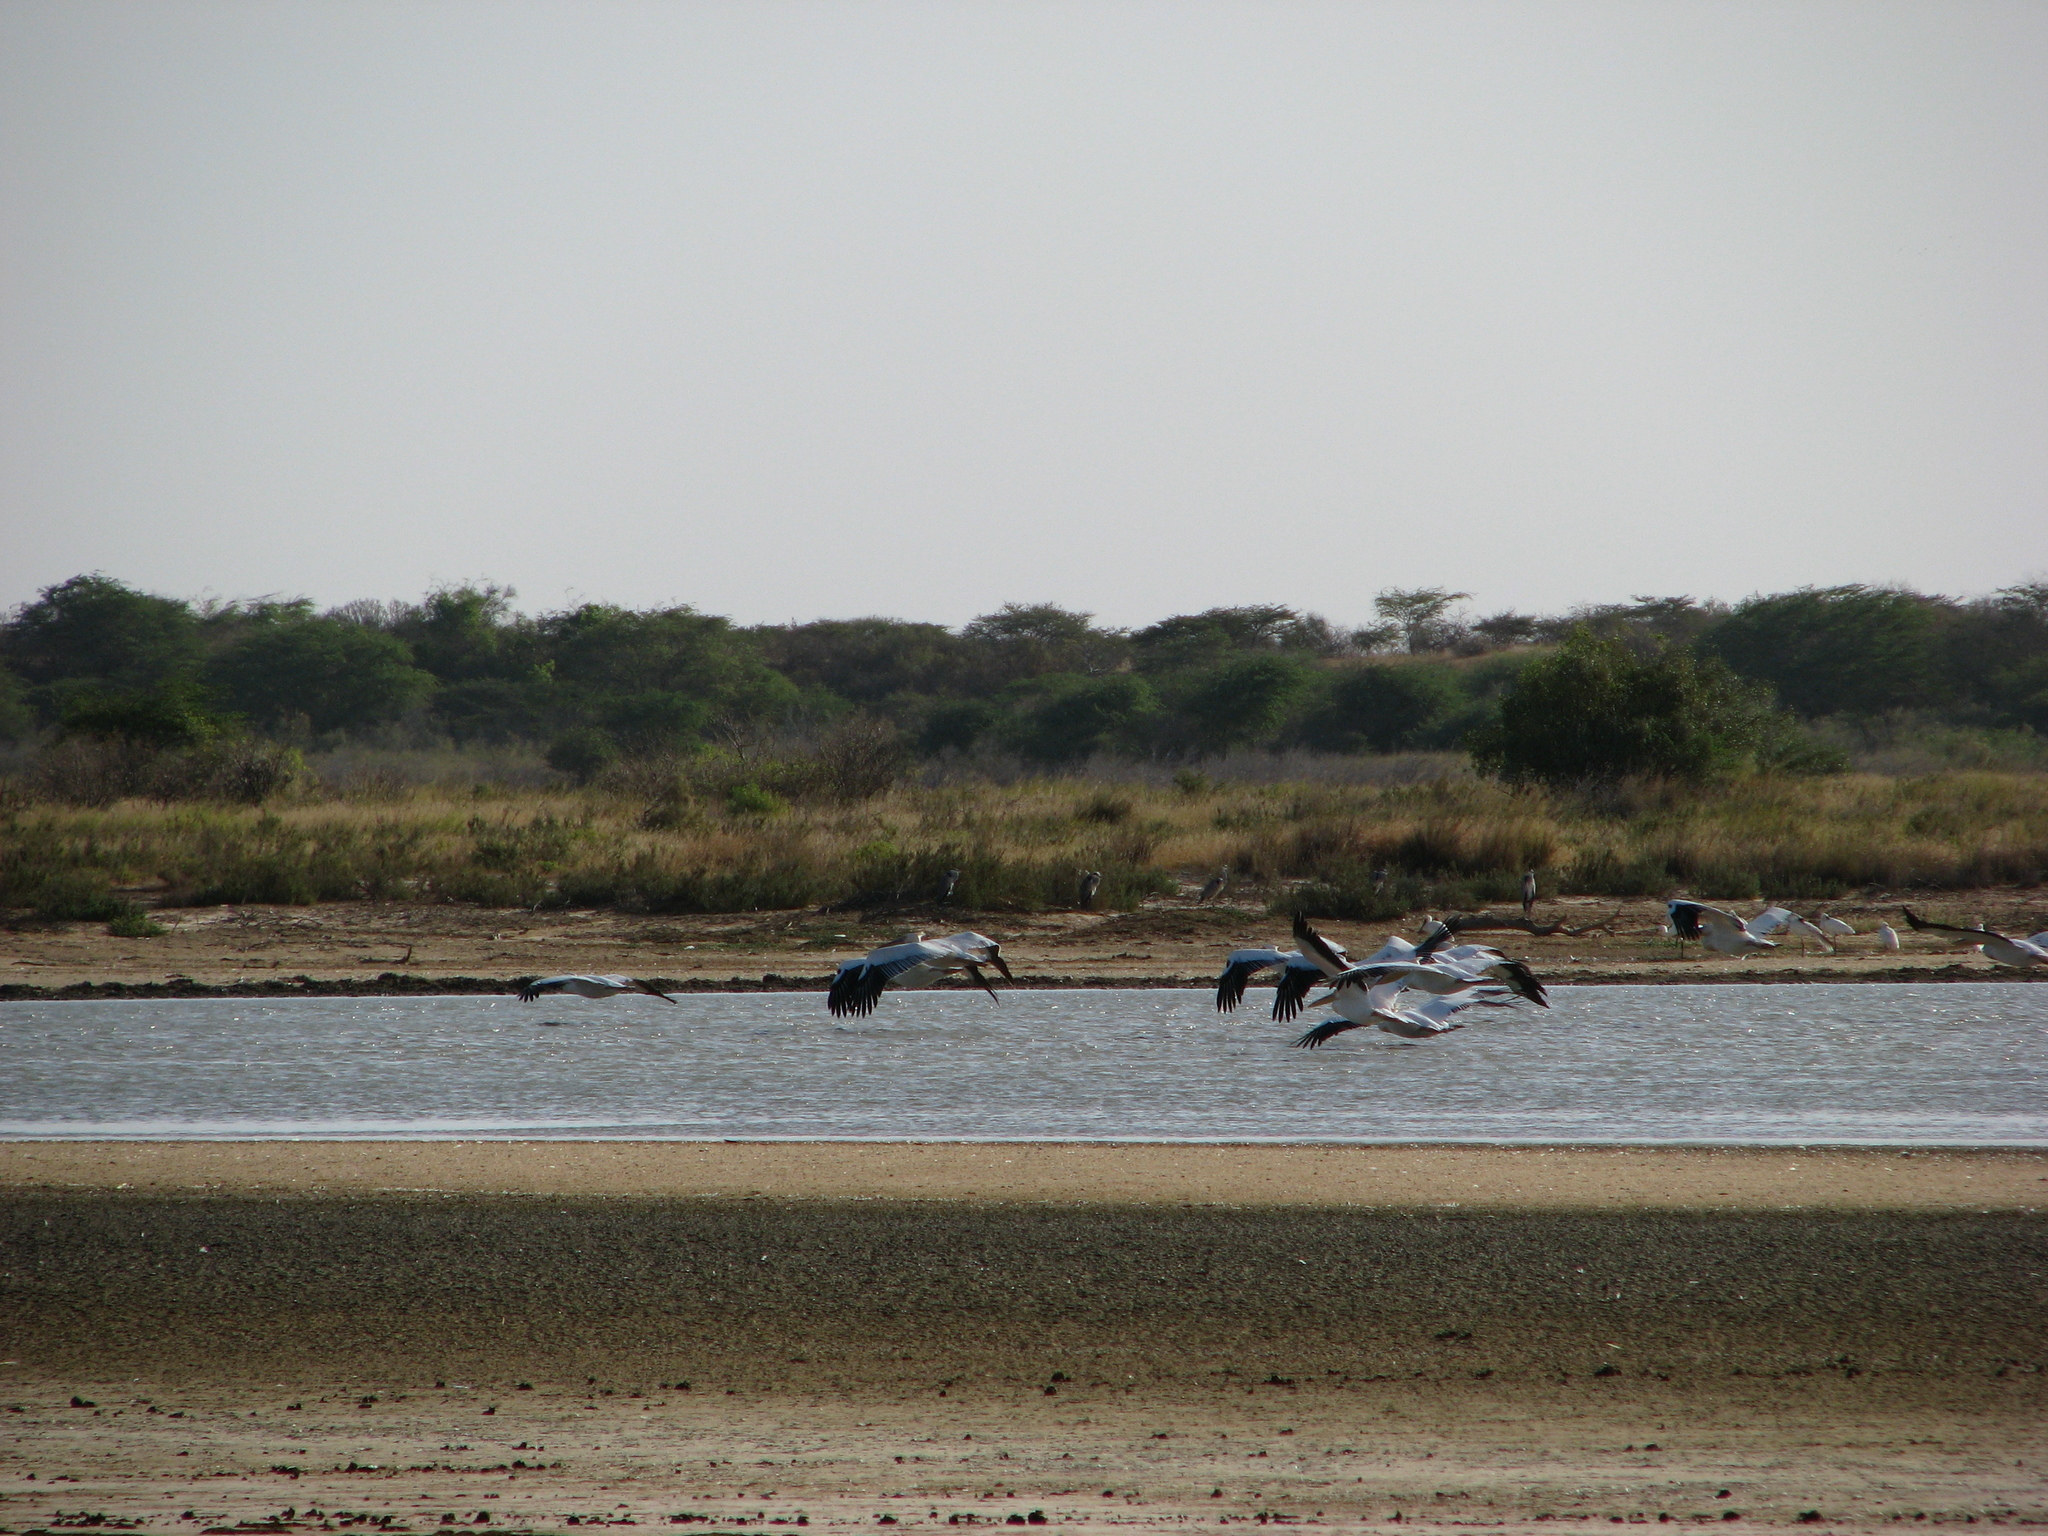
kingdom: Animalia
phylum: Chordata
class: Aves
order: Pelecaniformes
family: Pelecanidae
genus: Pelecanus
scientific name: Pelecanus onocrotalus
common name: Great white pelican
